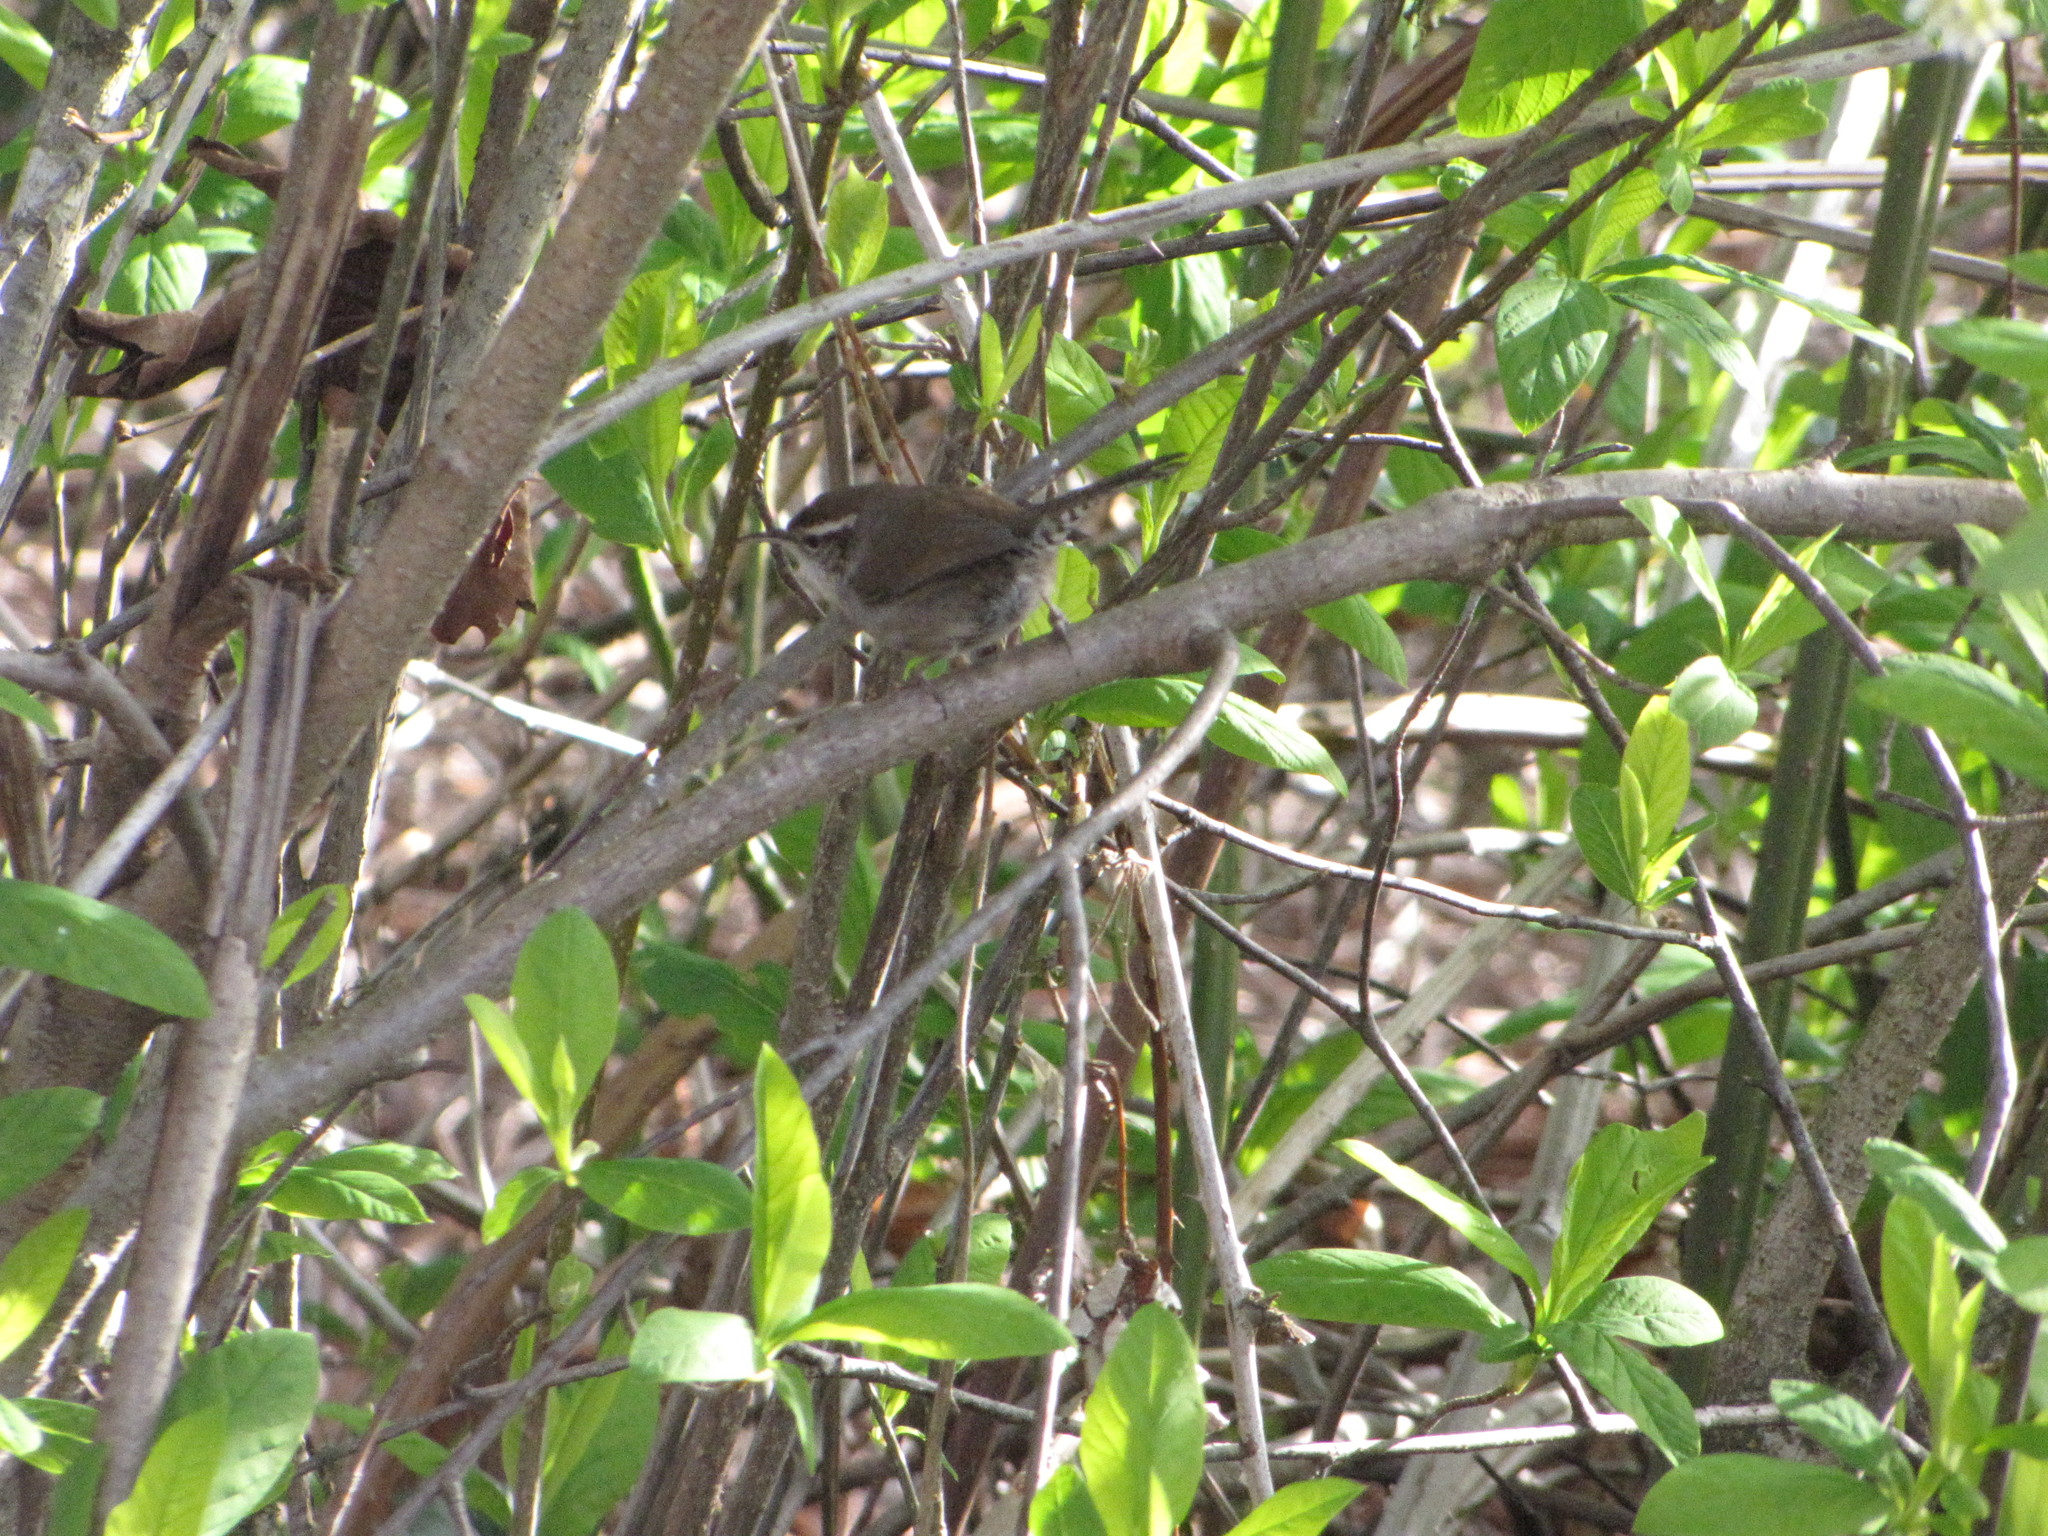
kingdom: Animalia
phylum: Chordata
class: Aves
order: Passeriformes
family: Troglodytidae
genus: Thryomanes
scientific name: Thryomanes bewickii
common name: Bewick's wren
